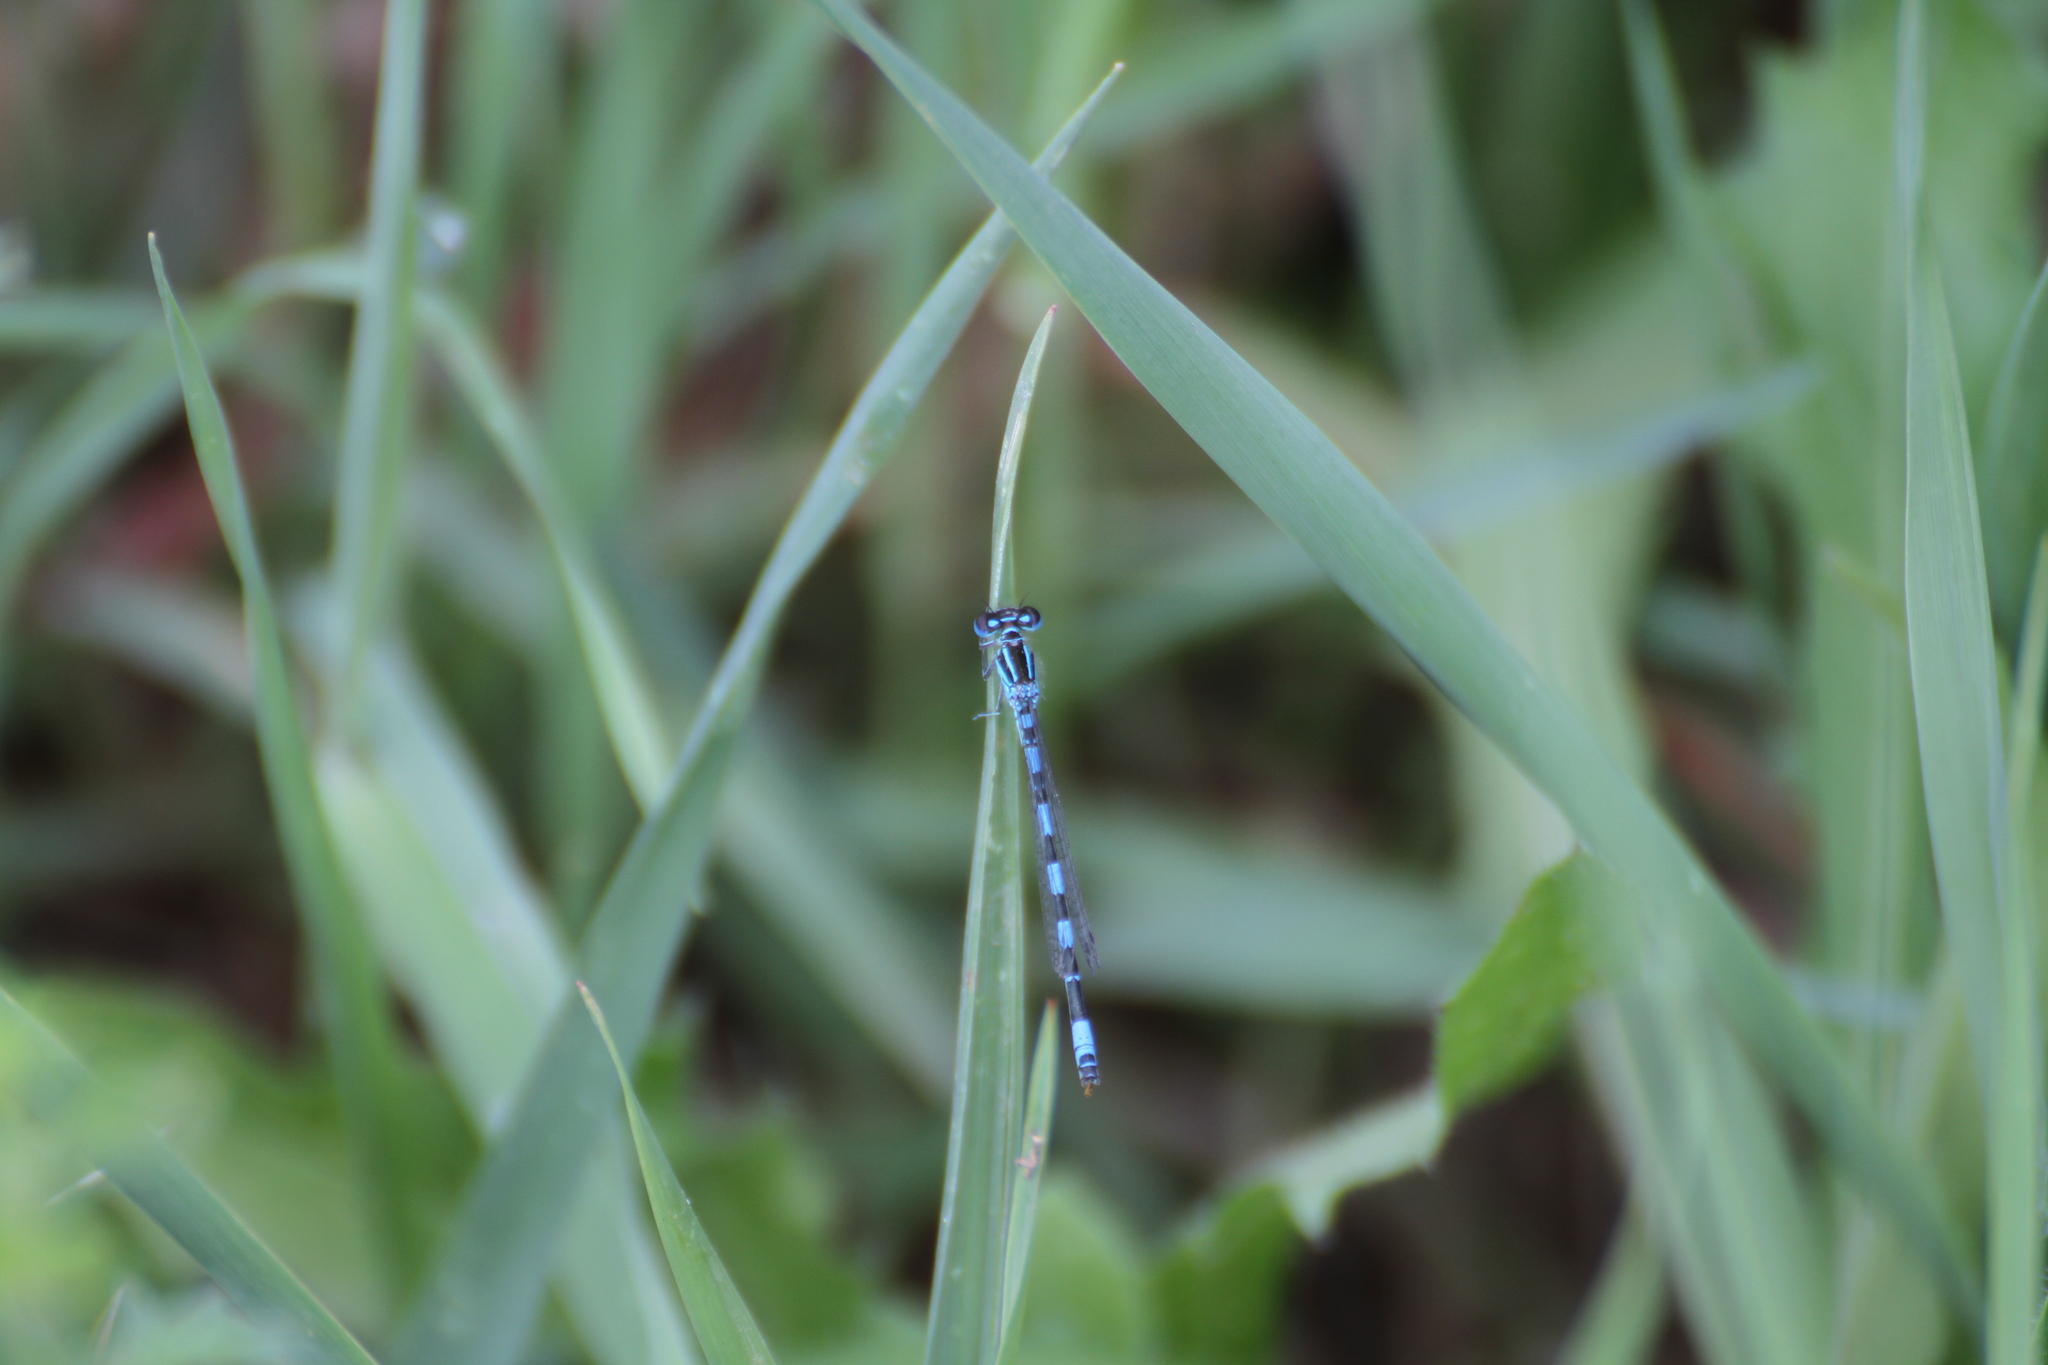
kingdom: Animalia
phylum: Arthropoda
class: Insecta
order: Odonata
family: Coenagrionidae
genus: Coenagrion
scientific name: Coenagrion mercuriale
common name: Southern damselfly
